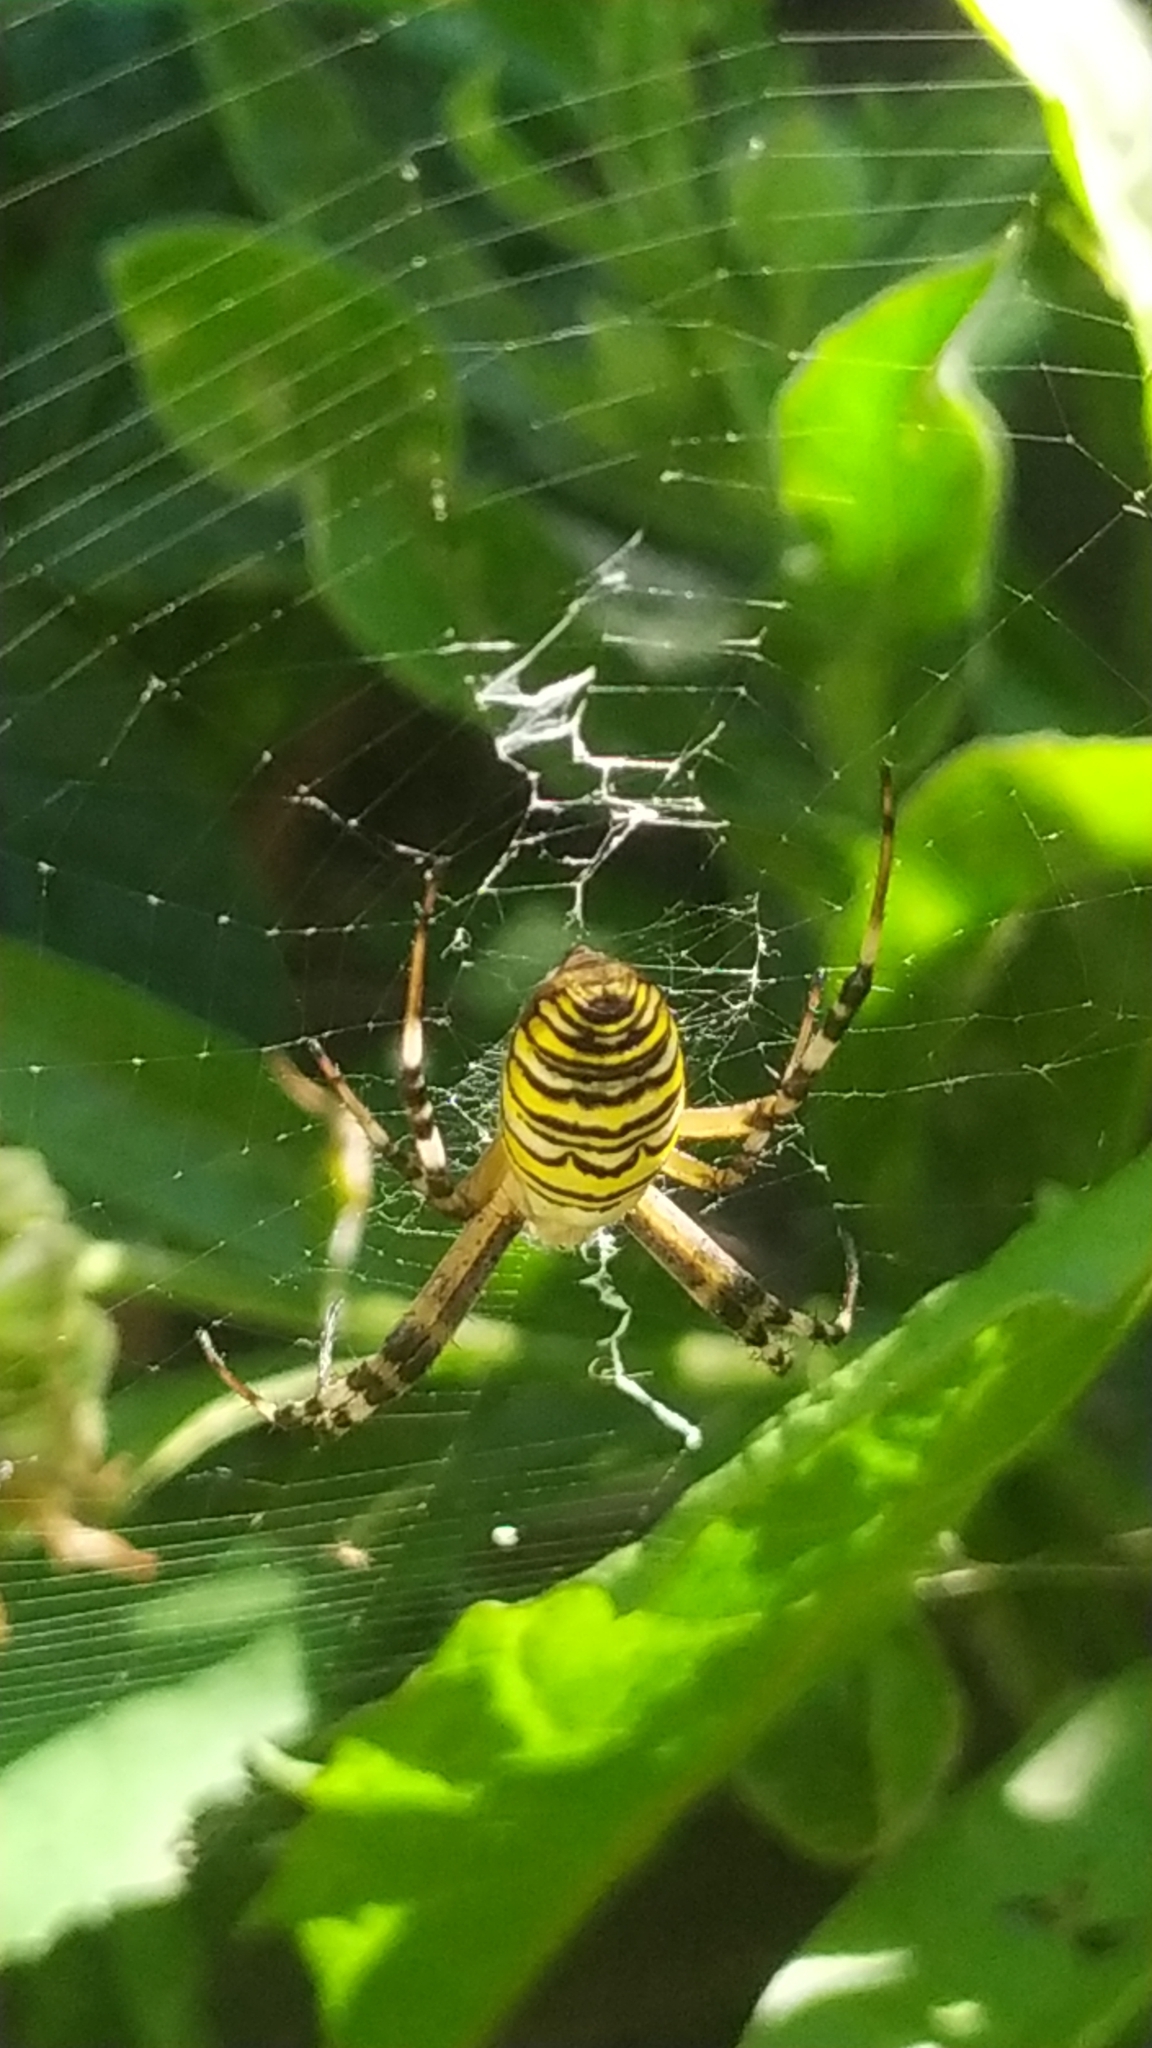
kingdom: Animalia
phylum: Arthropoda
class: Arachnida
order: Araneae
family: Araneidae
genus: Argiope
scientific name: Argiope bruennichi
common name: Wasp spider
